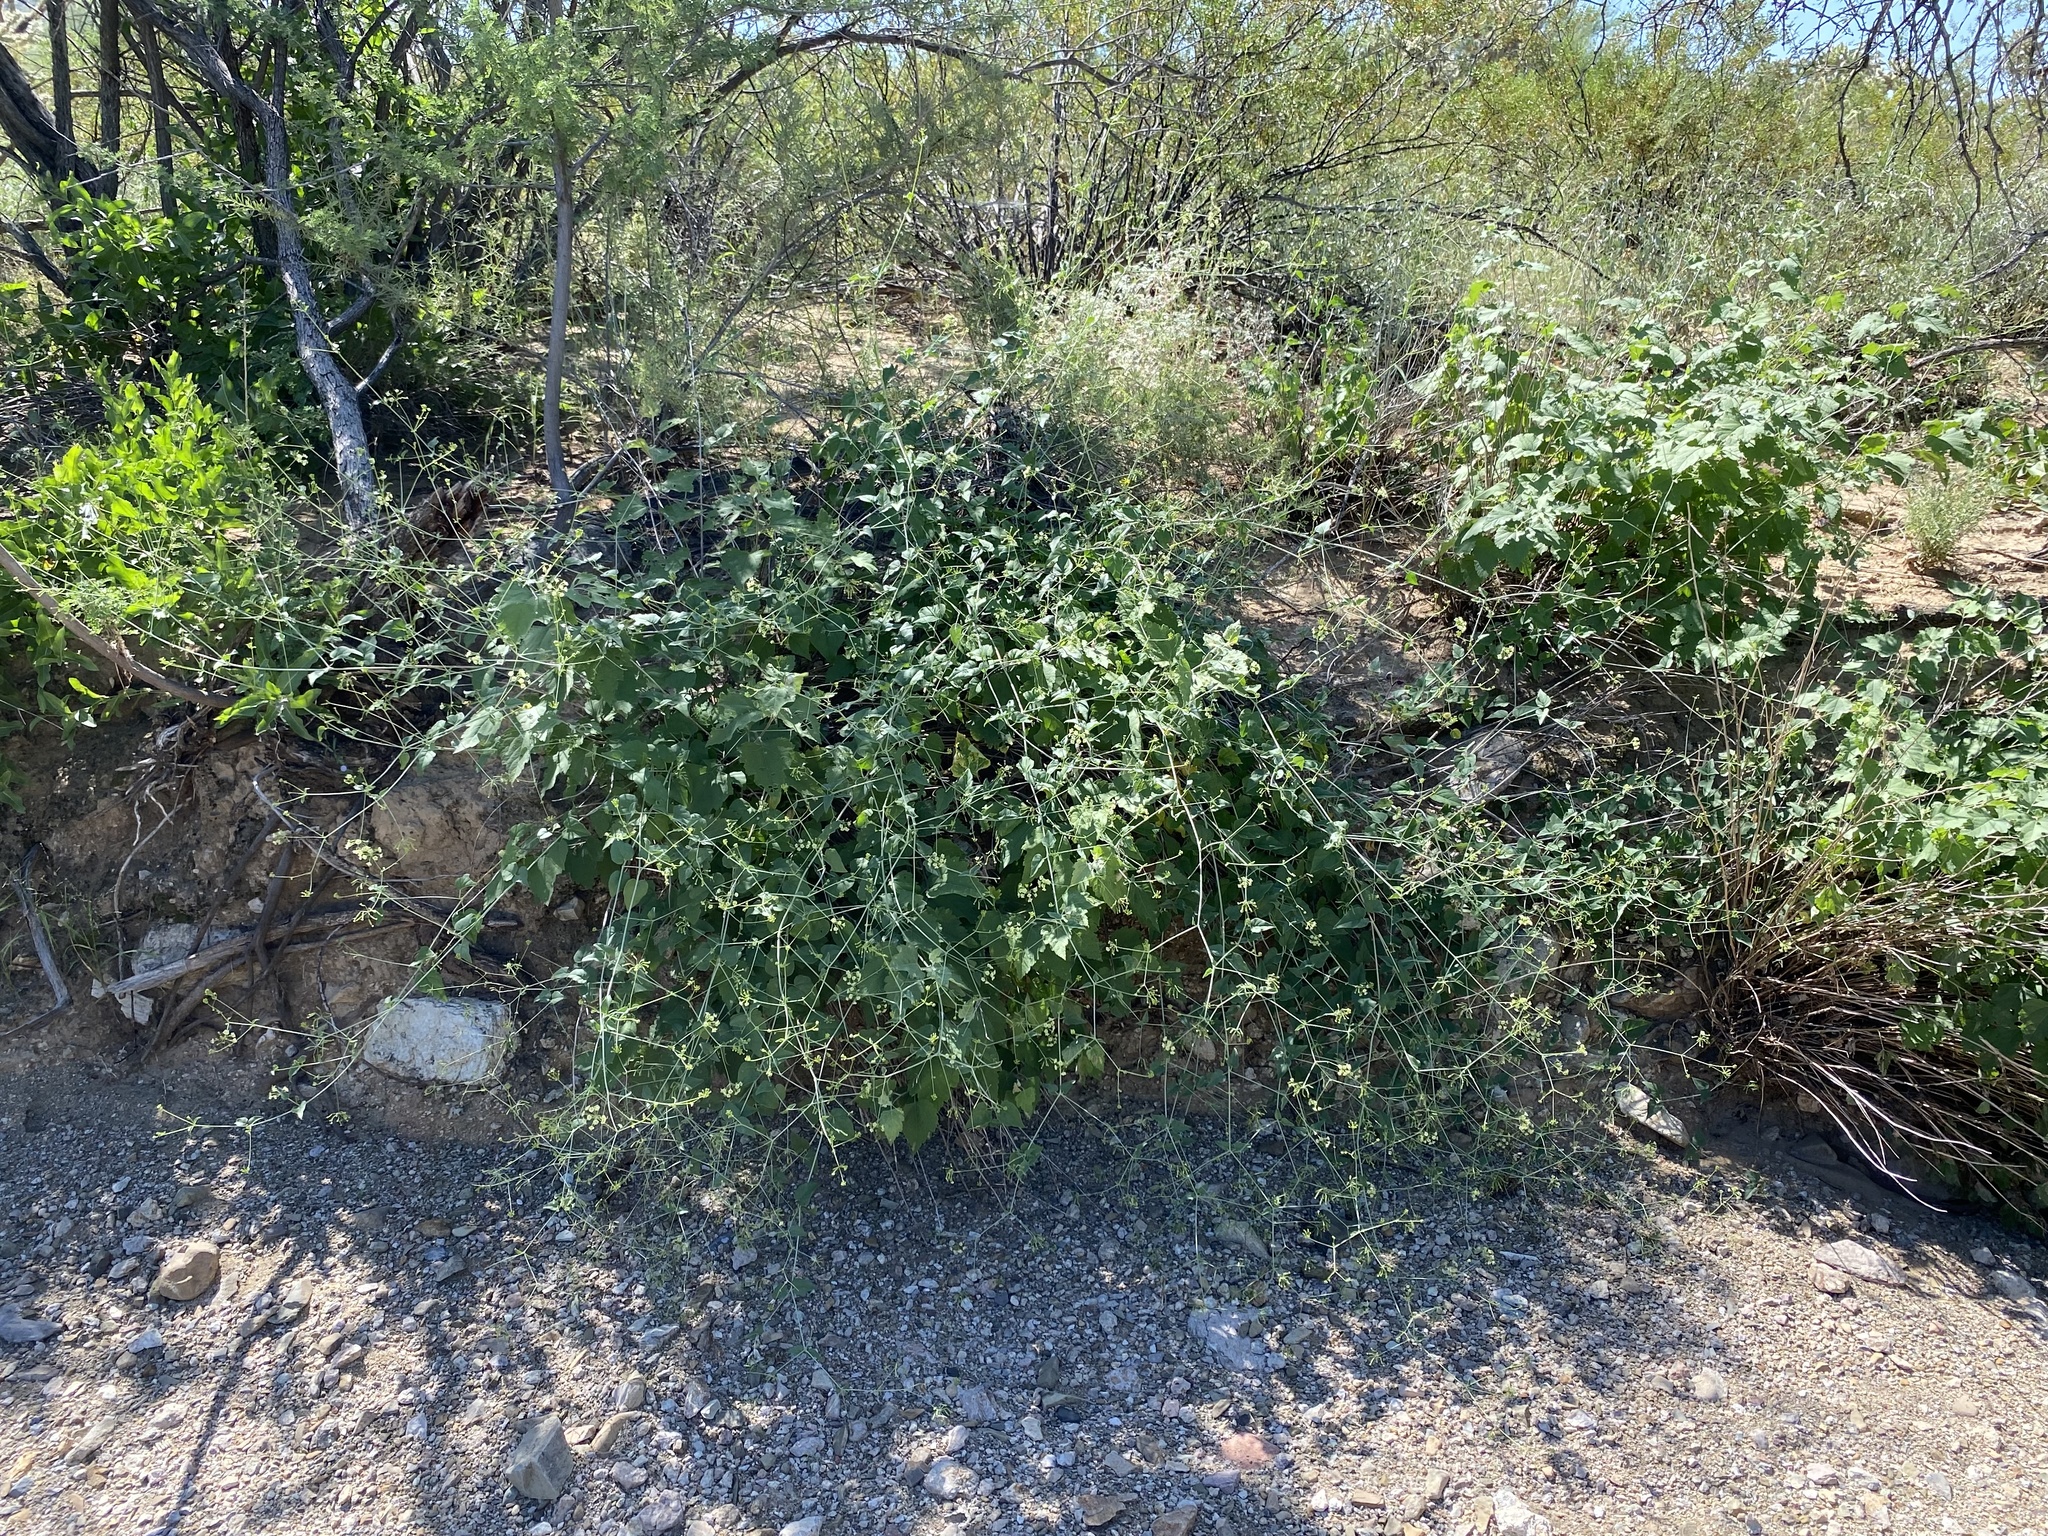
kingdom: Plantae
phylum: Tracheophyta
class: Magnoliopsida
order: Caryophyllales
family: Nyctaginaceae
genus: Commicarpus
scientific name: Commicarpus scandens
